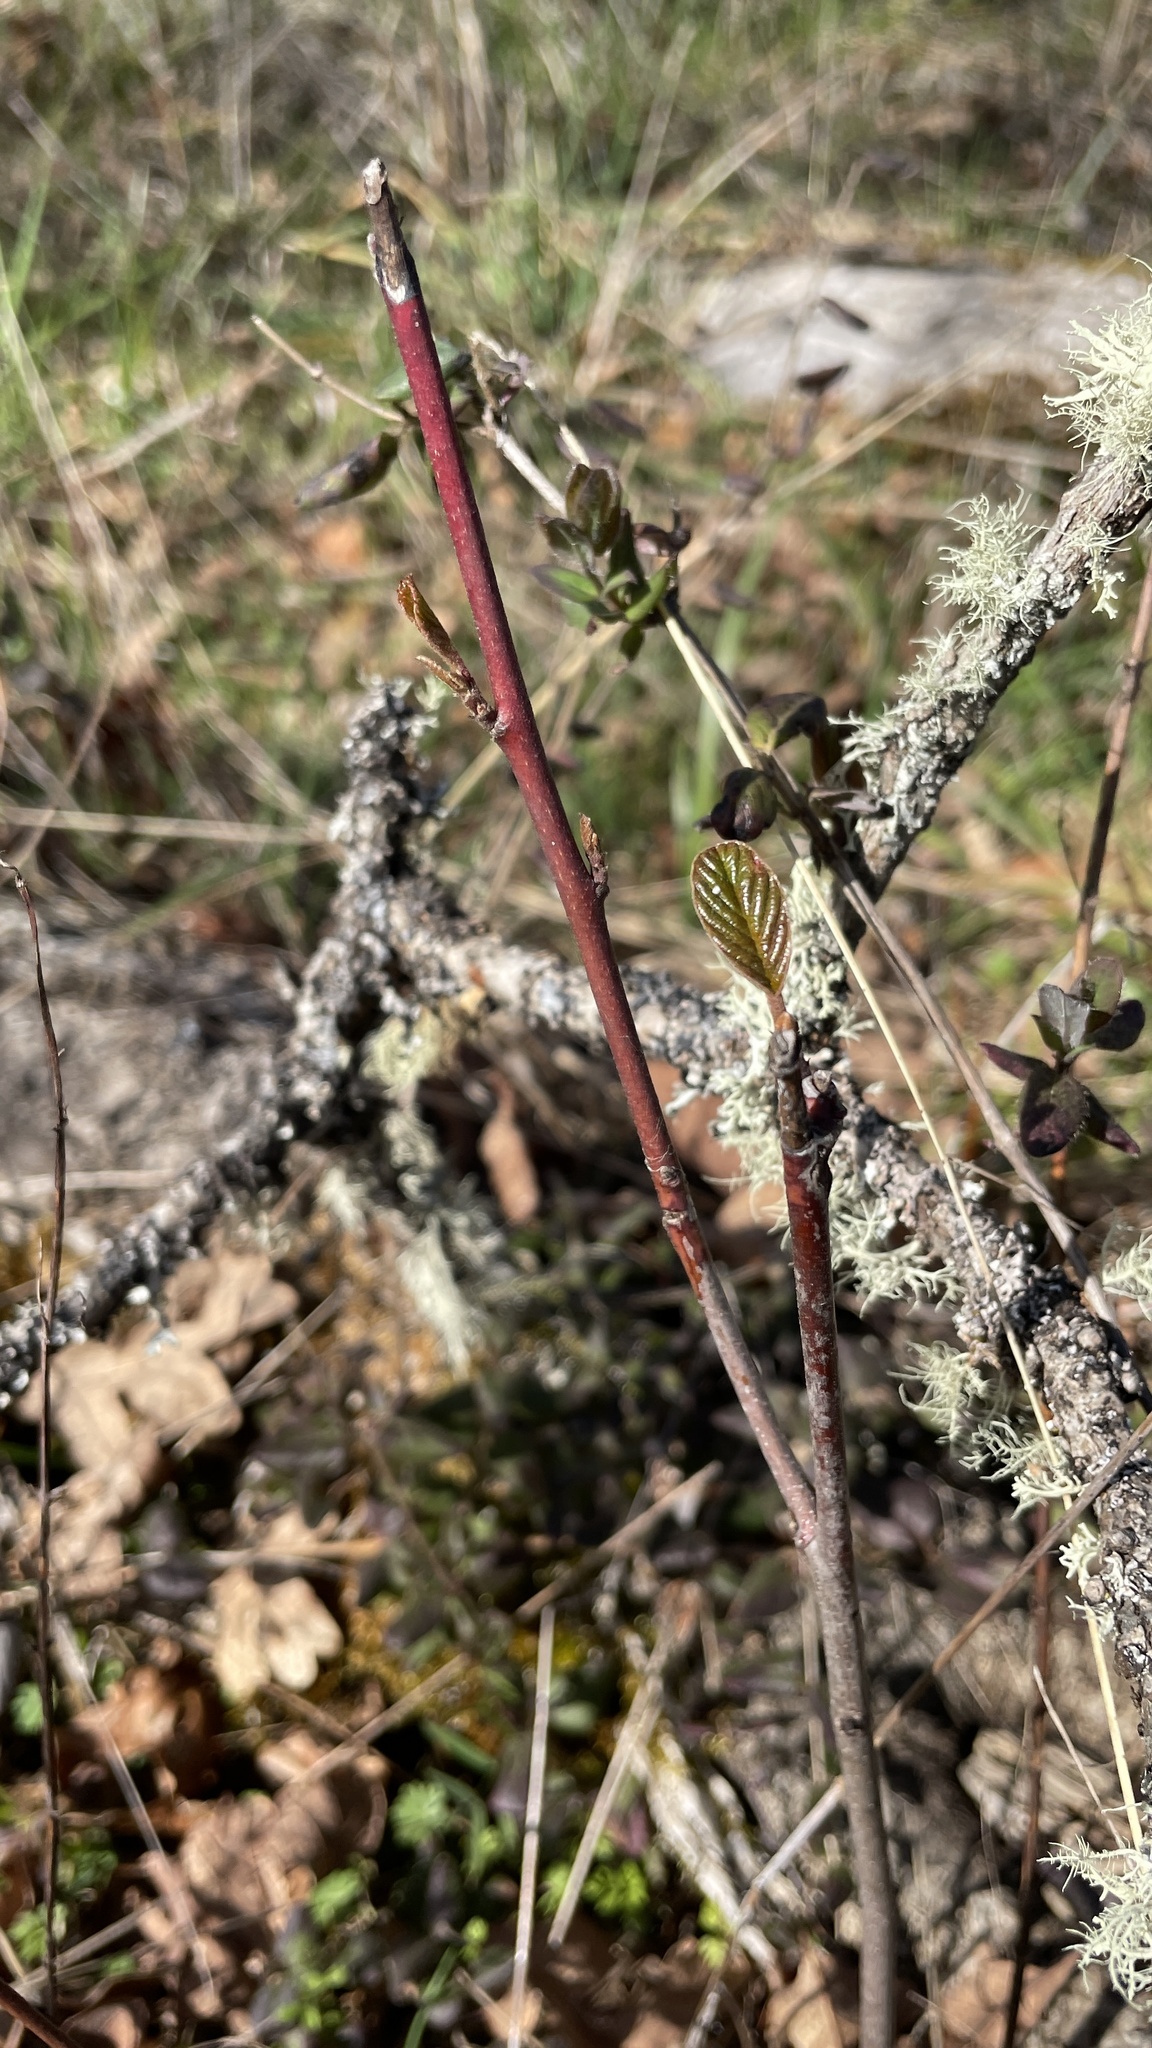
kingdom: Plantae
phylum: Tracheophyta
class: Magnoliopsida
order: Rosales
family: Rhamnaceae
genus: Frangula
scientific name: Frangula purshiana
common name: Cascara buckthorn
